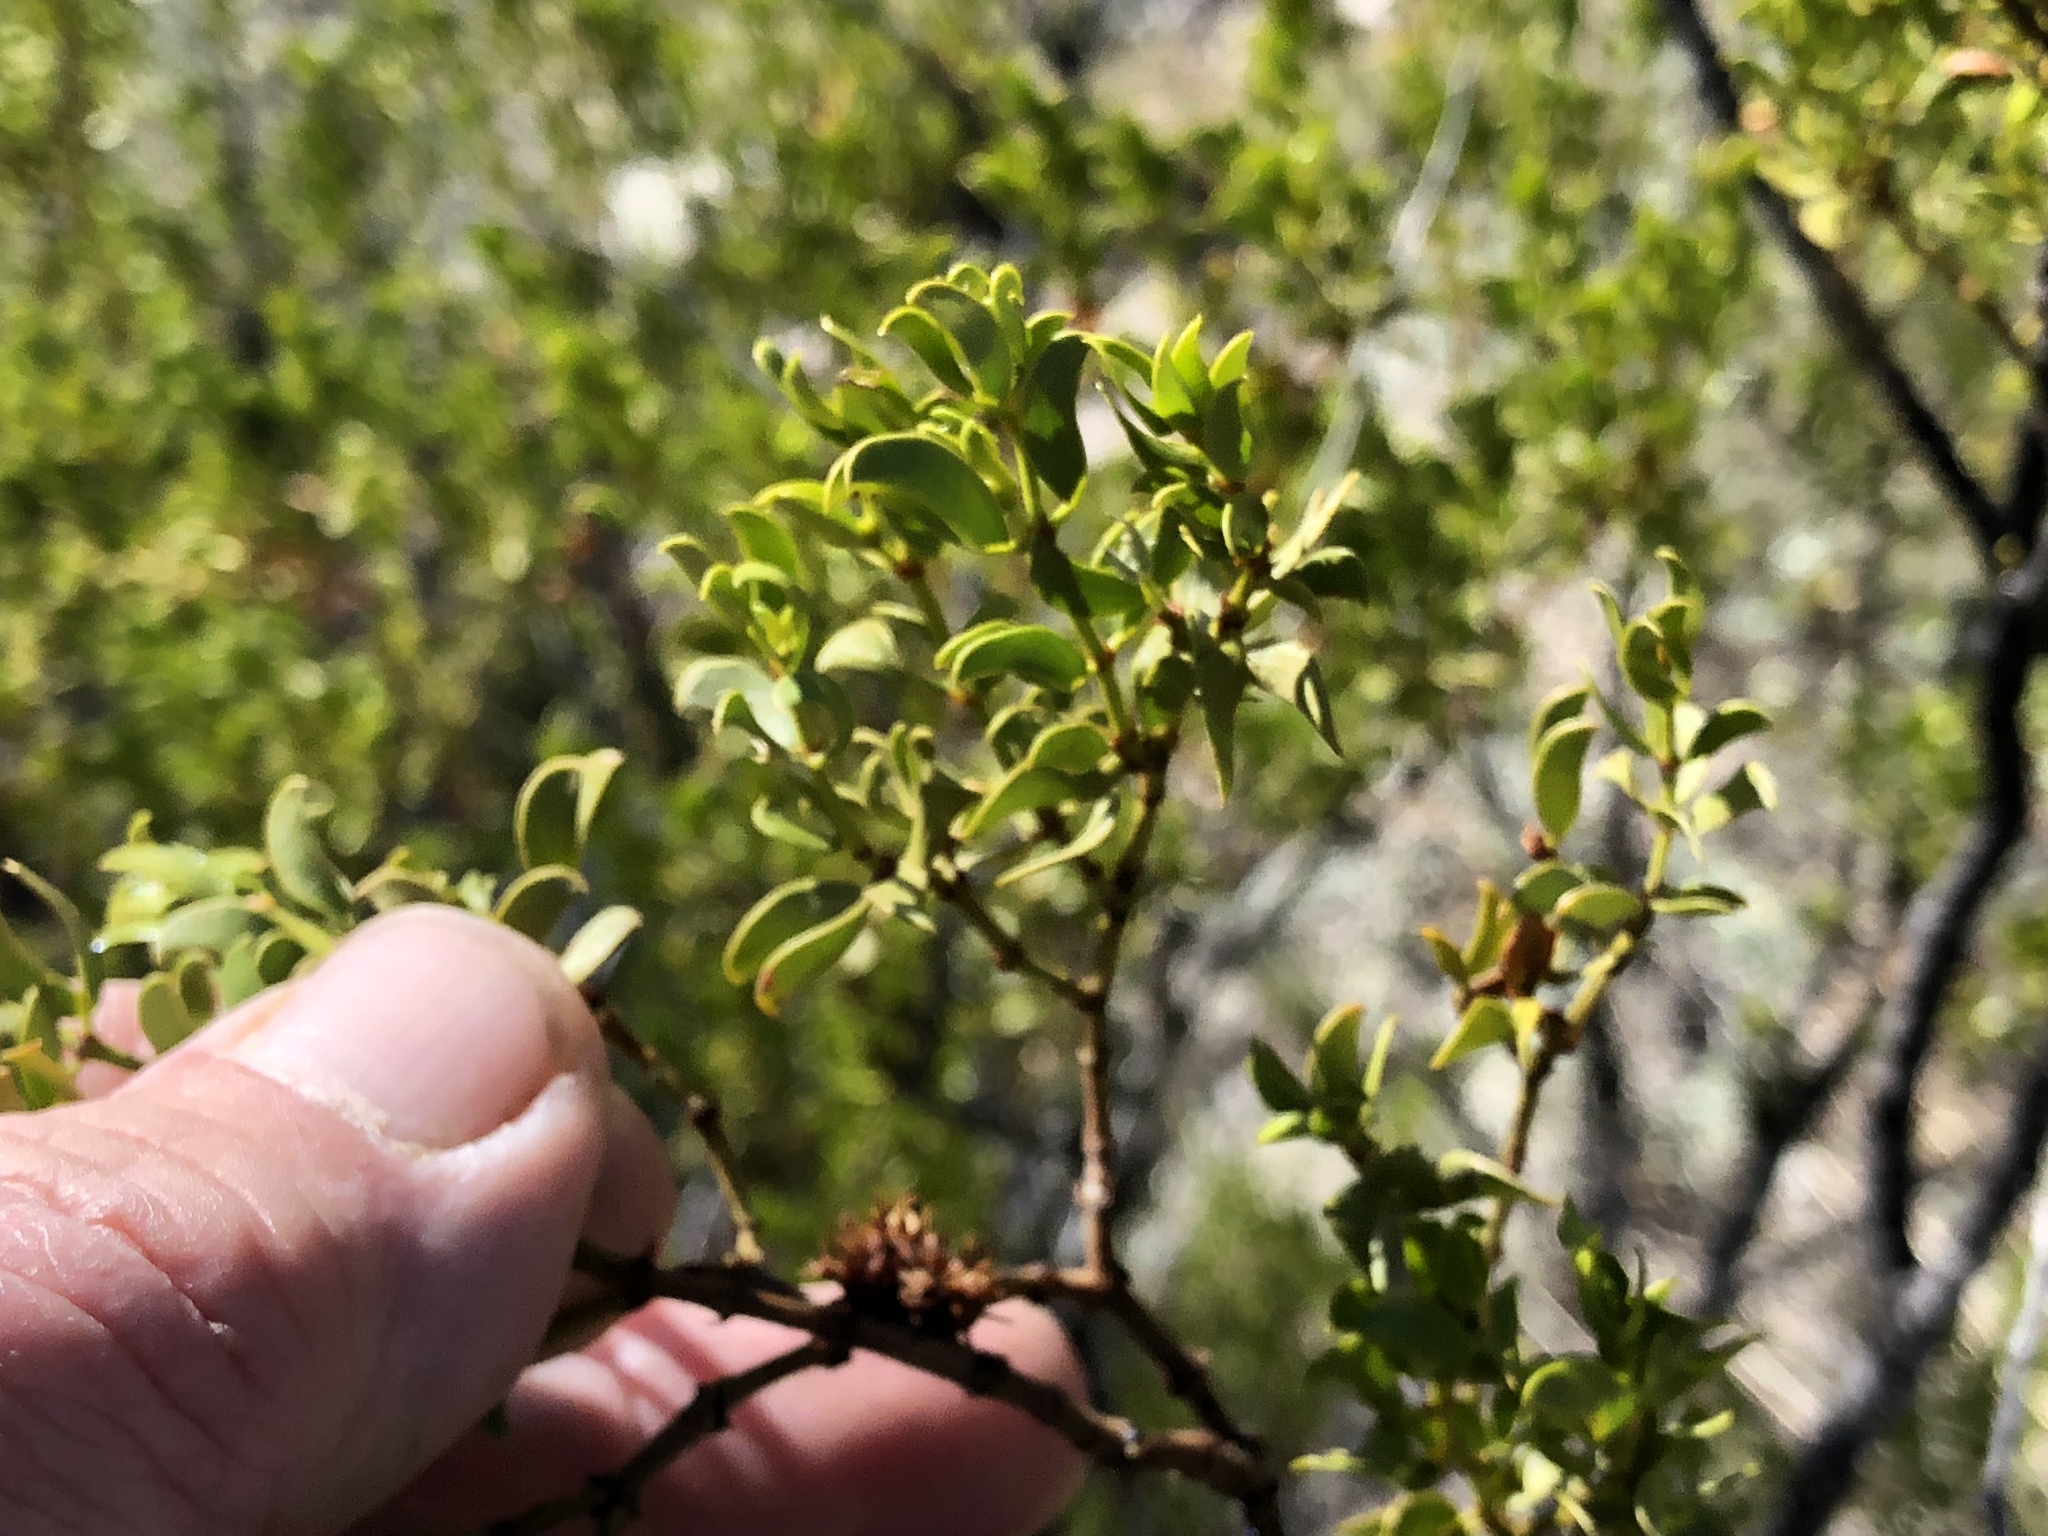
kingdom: Plantae
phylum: Tracheophyta
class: Magnoliopsida
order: Zygophyllales
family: Zygophyllaceae
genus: Larrea
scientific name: Larrea tridentata
